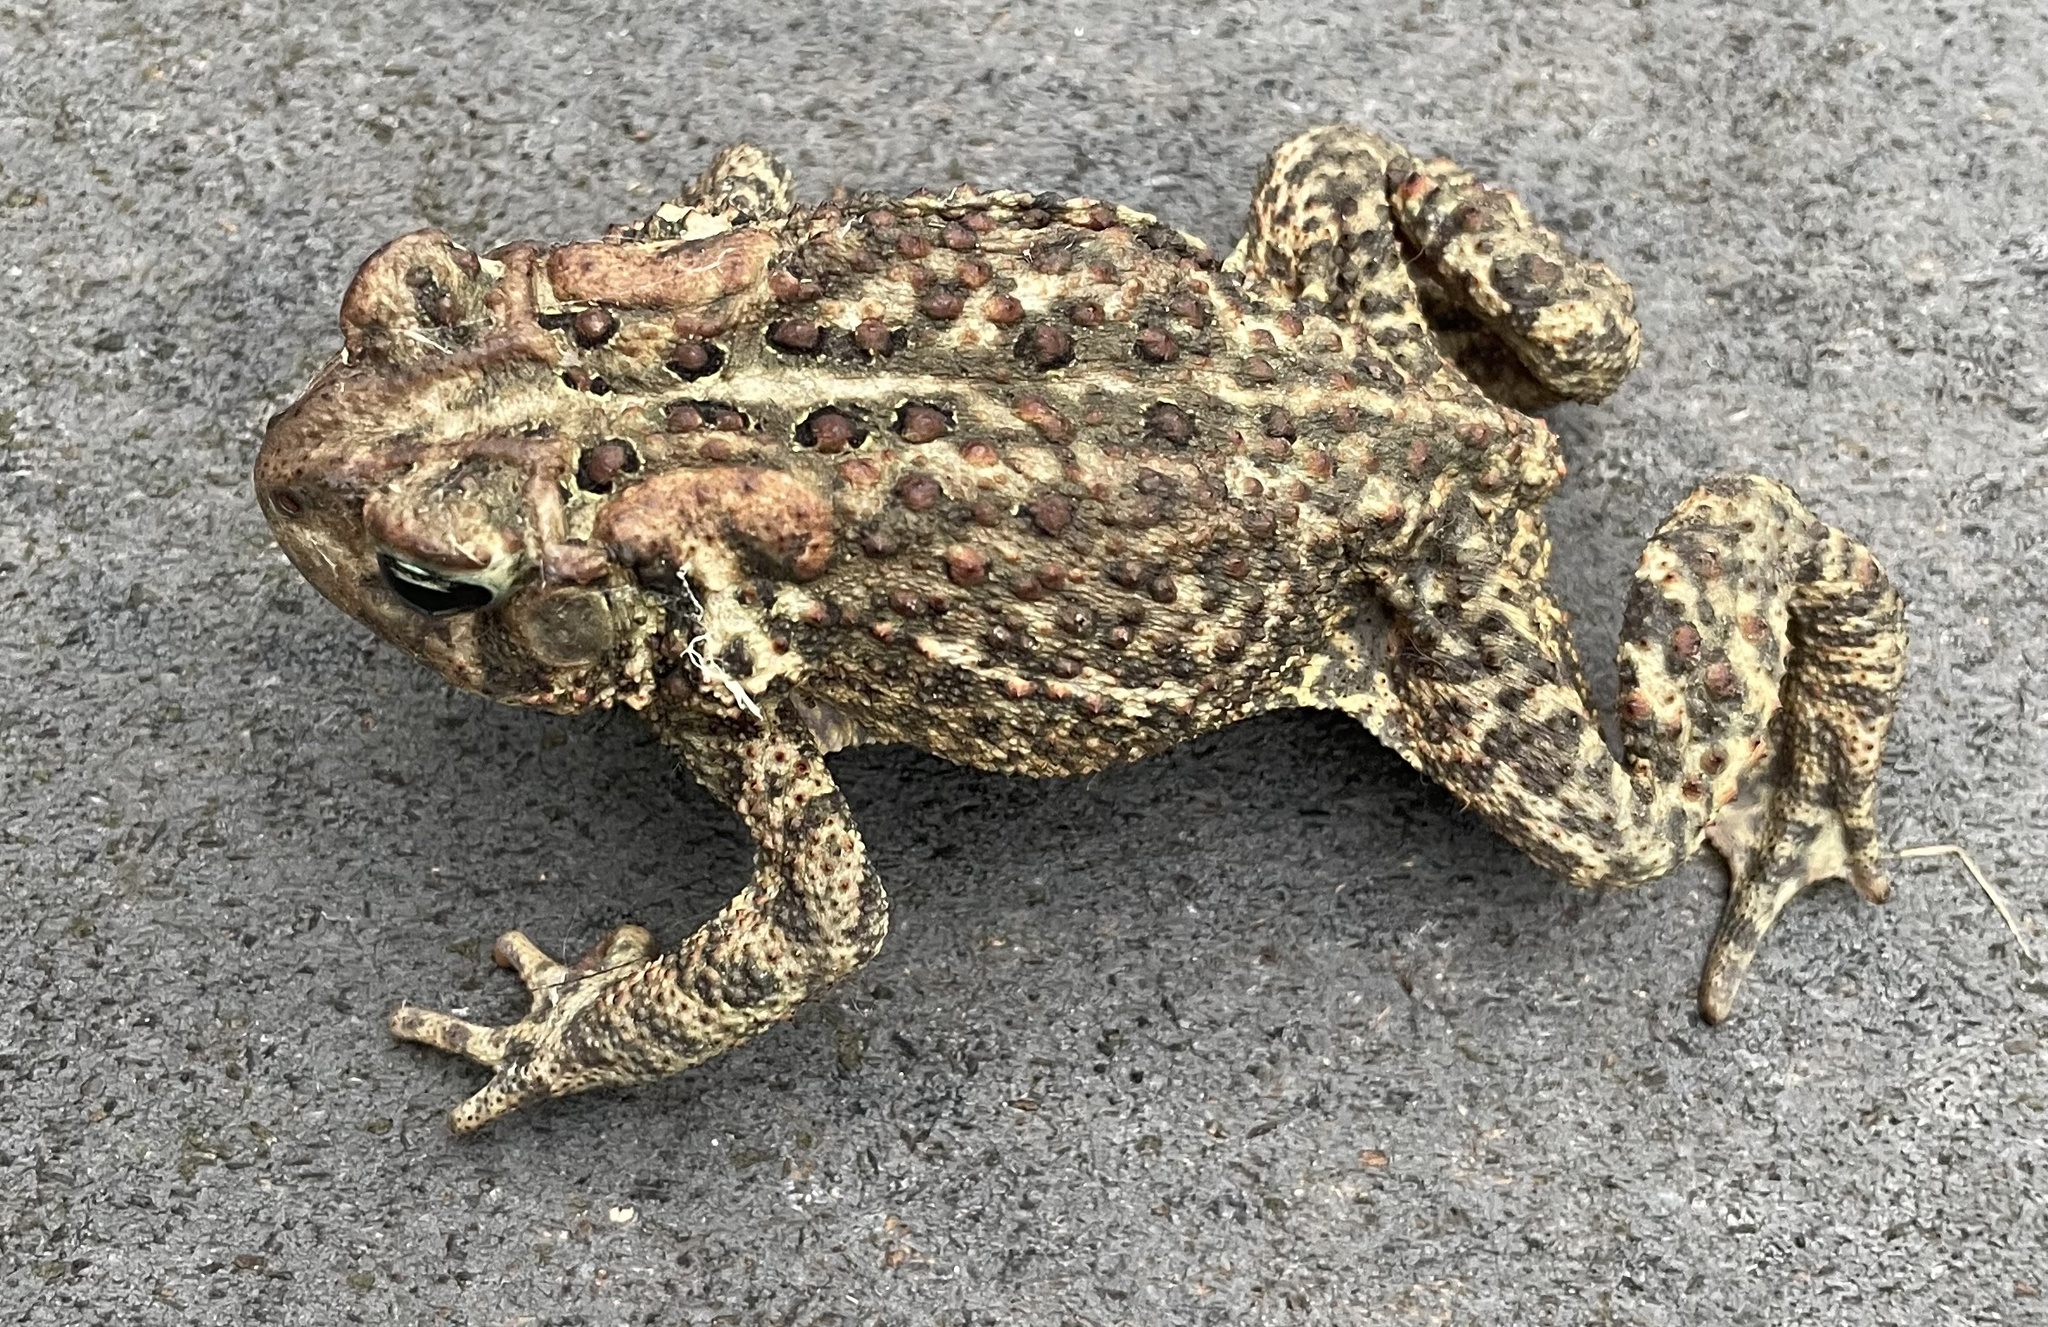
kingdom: Animalia
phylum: Chordata
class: Amphibia
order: Anura
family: Bufonidae
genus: Anaxyrus
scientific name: Anaxyrus americanus
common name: American toad
